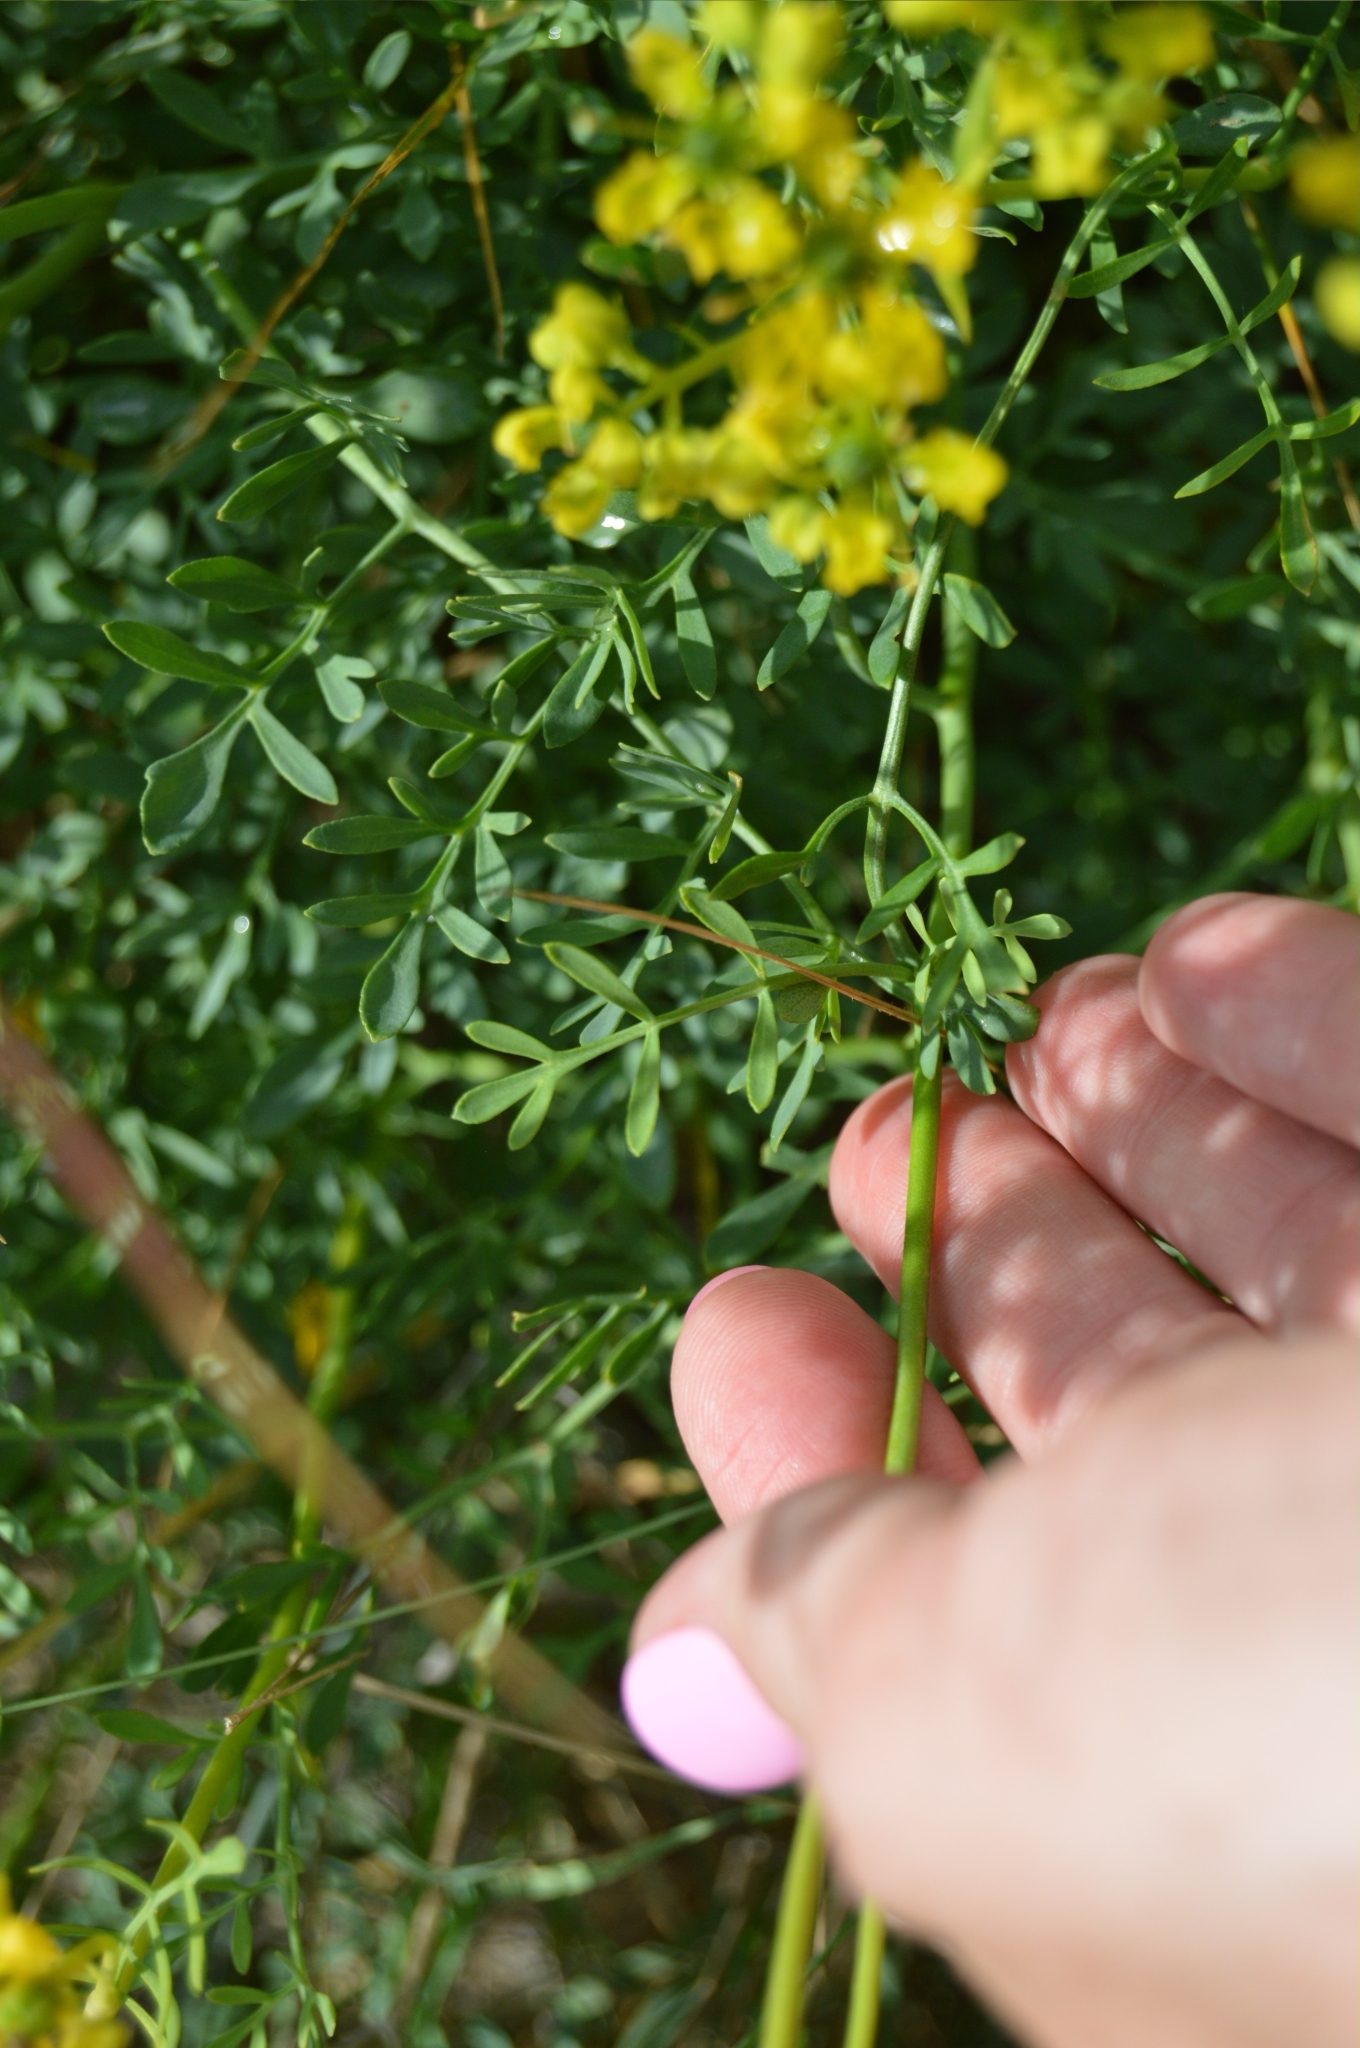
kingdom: Plantae
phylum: Tracheophyta
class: Magnoliopsida
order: Sapindales
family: Rutaceae
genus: Ruta
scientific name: Ruta
